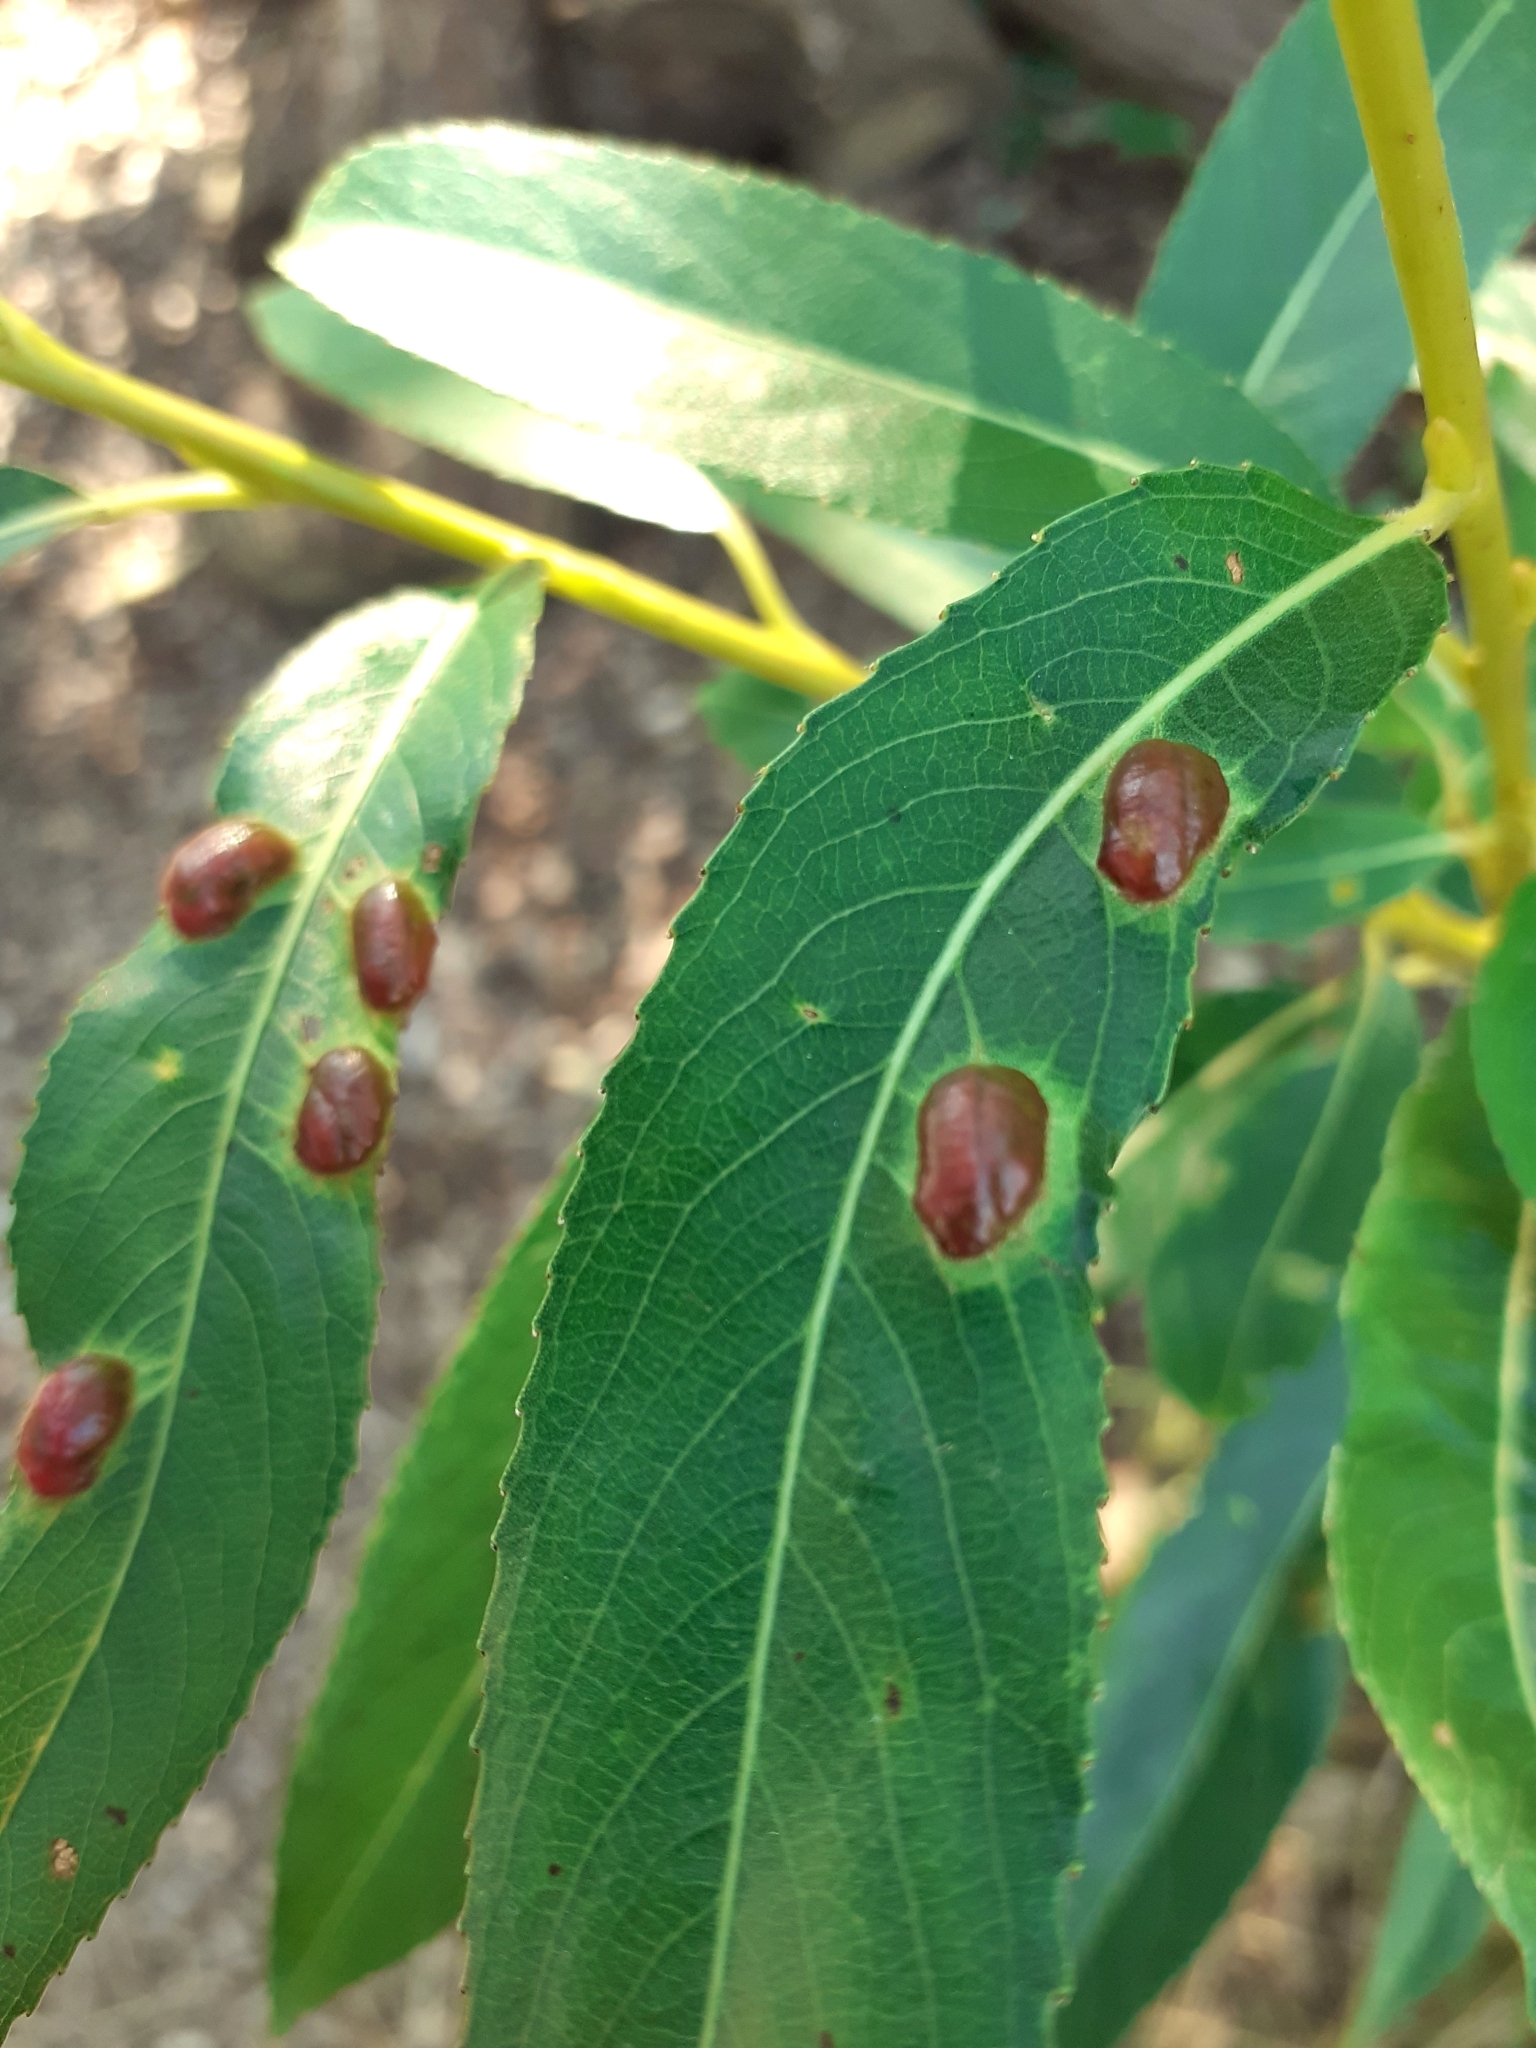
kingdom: Animalia
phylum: Arthropoda
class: Insecta
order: Hymenoptera
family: Tenthredinidae
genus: Pontania
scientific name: Pontania proxima
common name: Common sawfly
